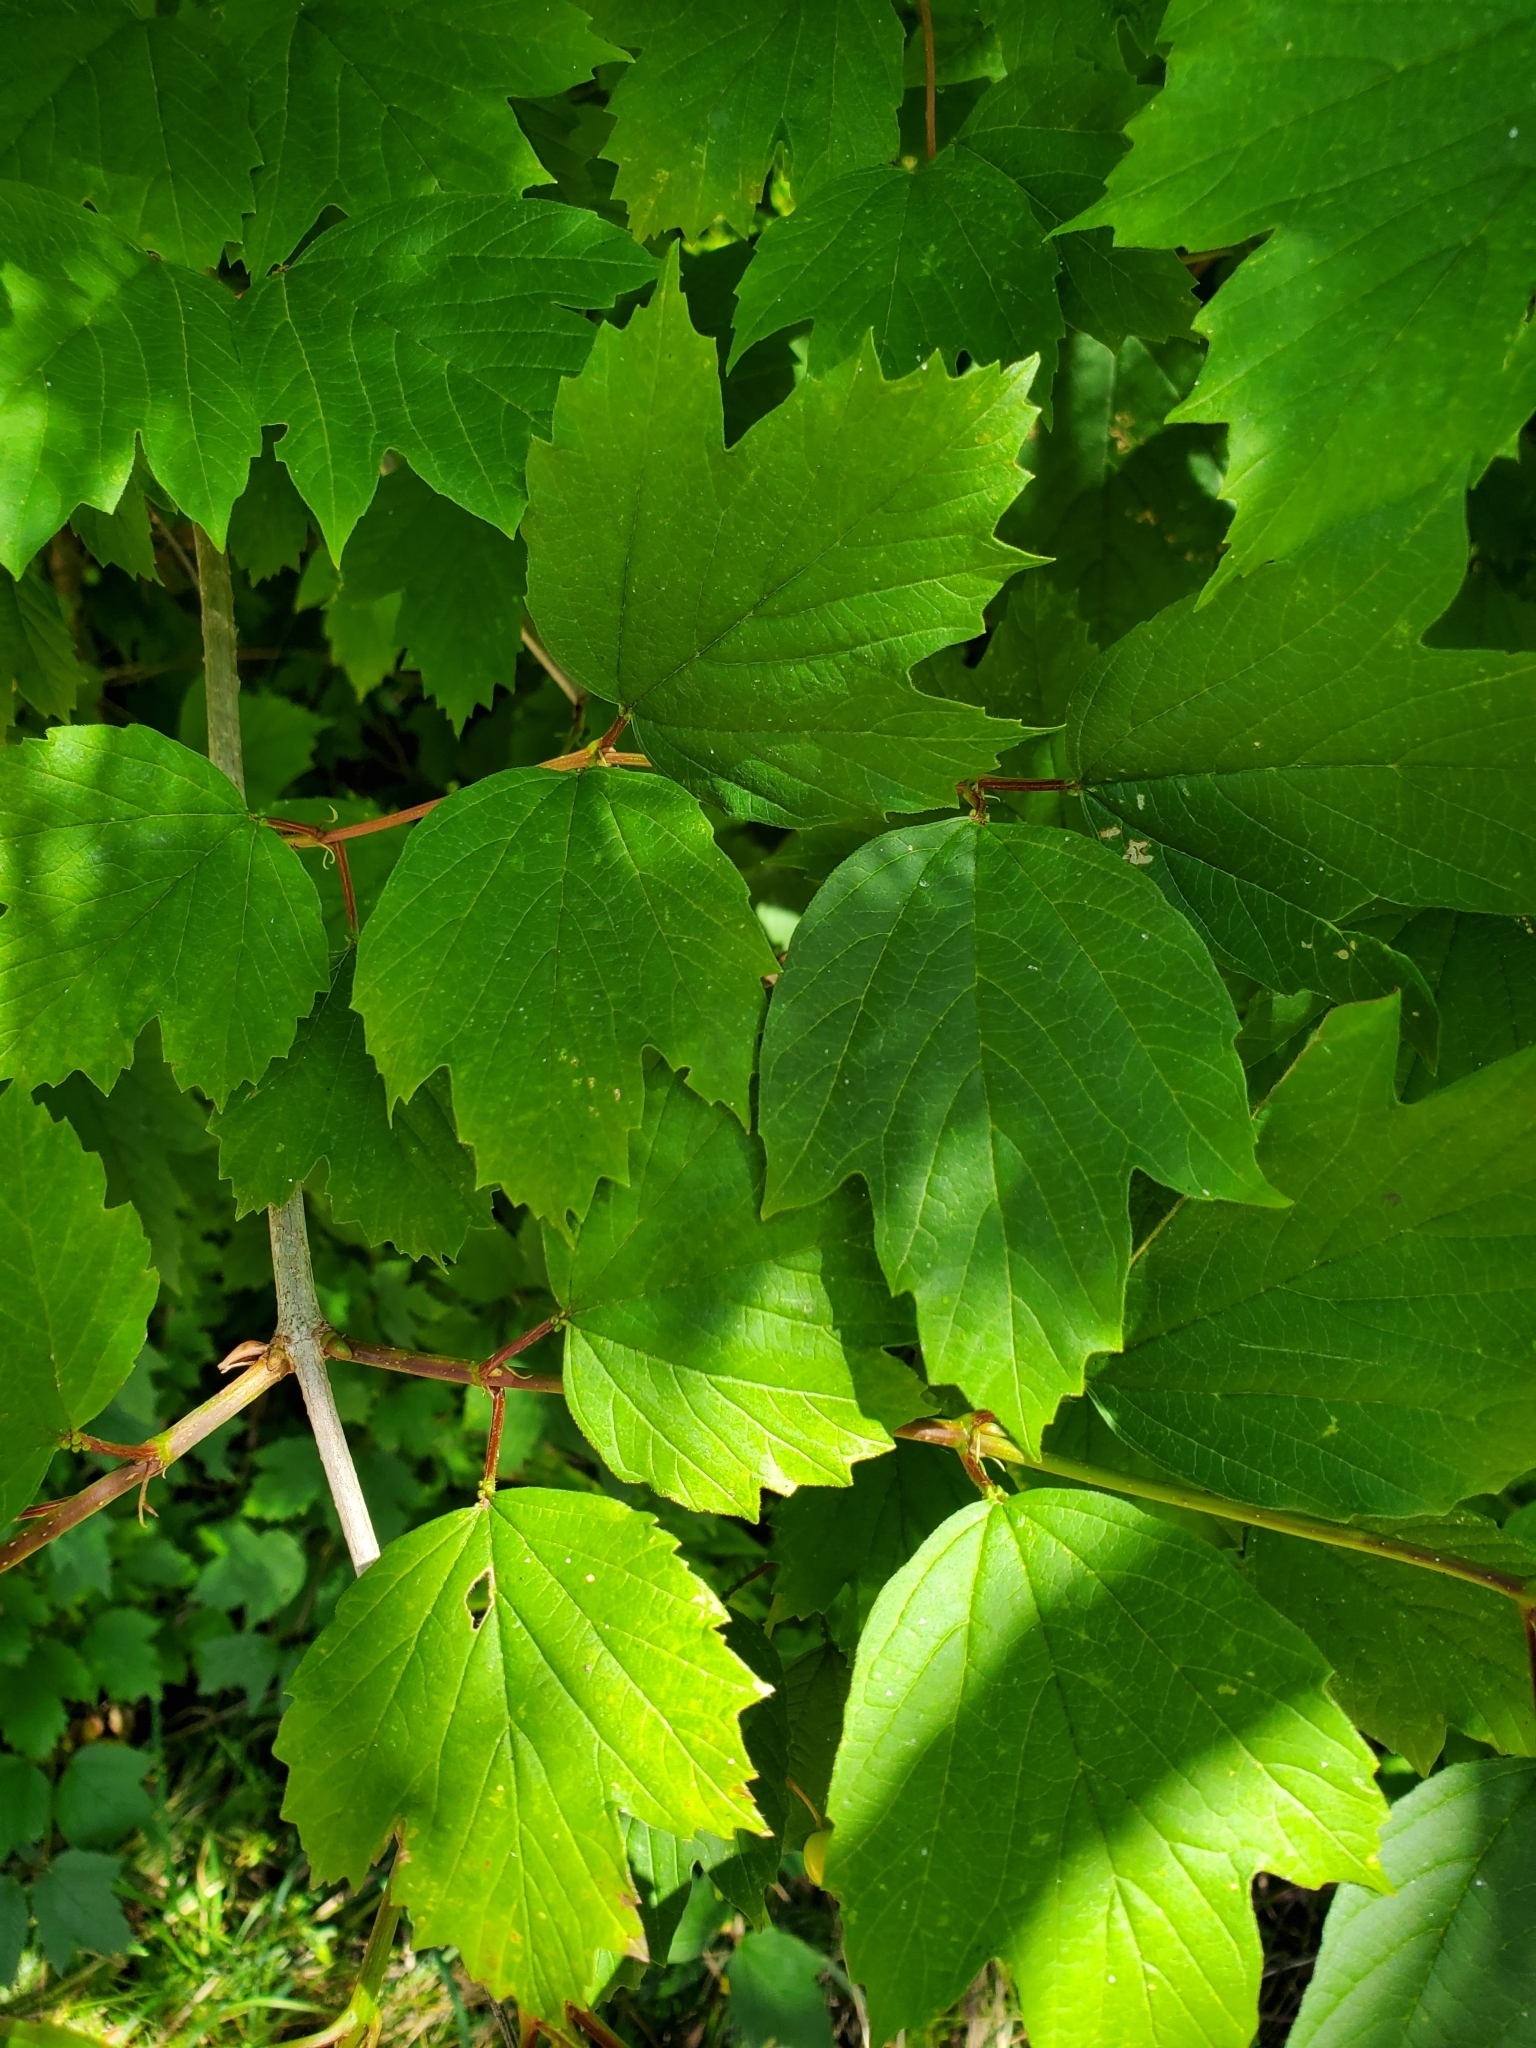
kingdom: Plantae
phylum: Tracheophyta
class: Magnoliopsida
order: Dipsacales
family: Viburnaceae
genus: Viburnum
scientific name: Viburnum opulus
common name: Guelder-rose
